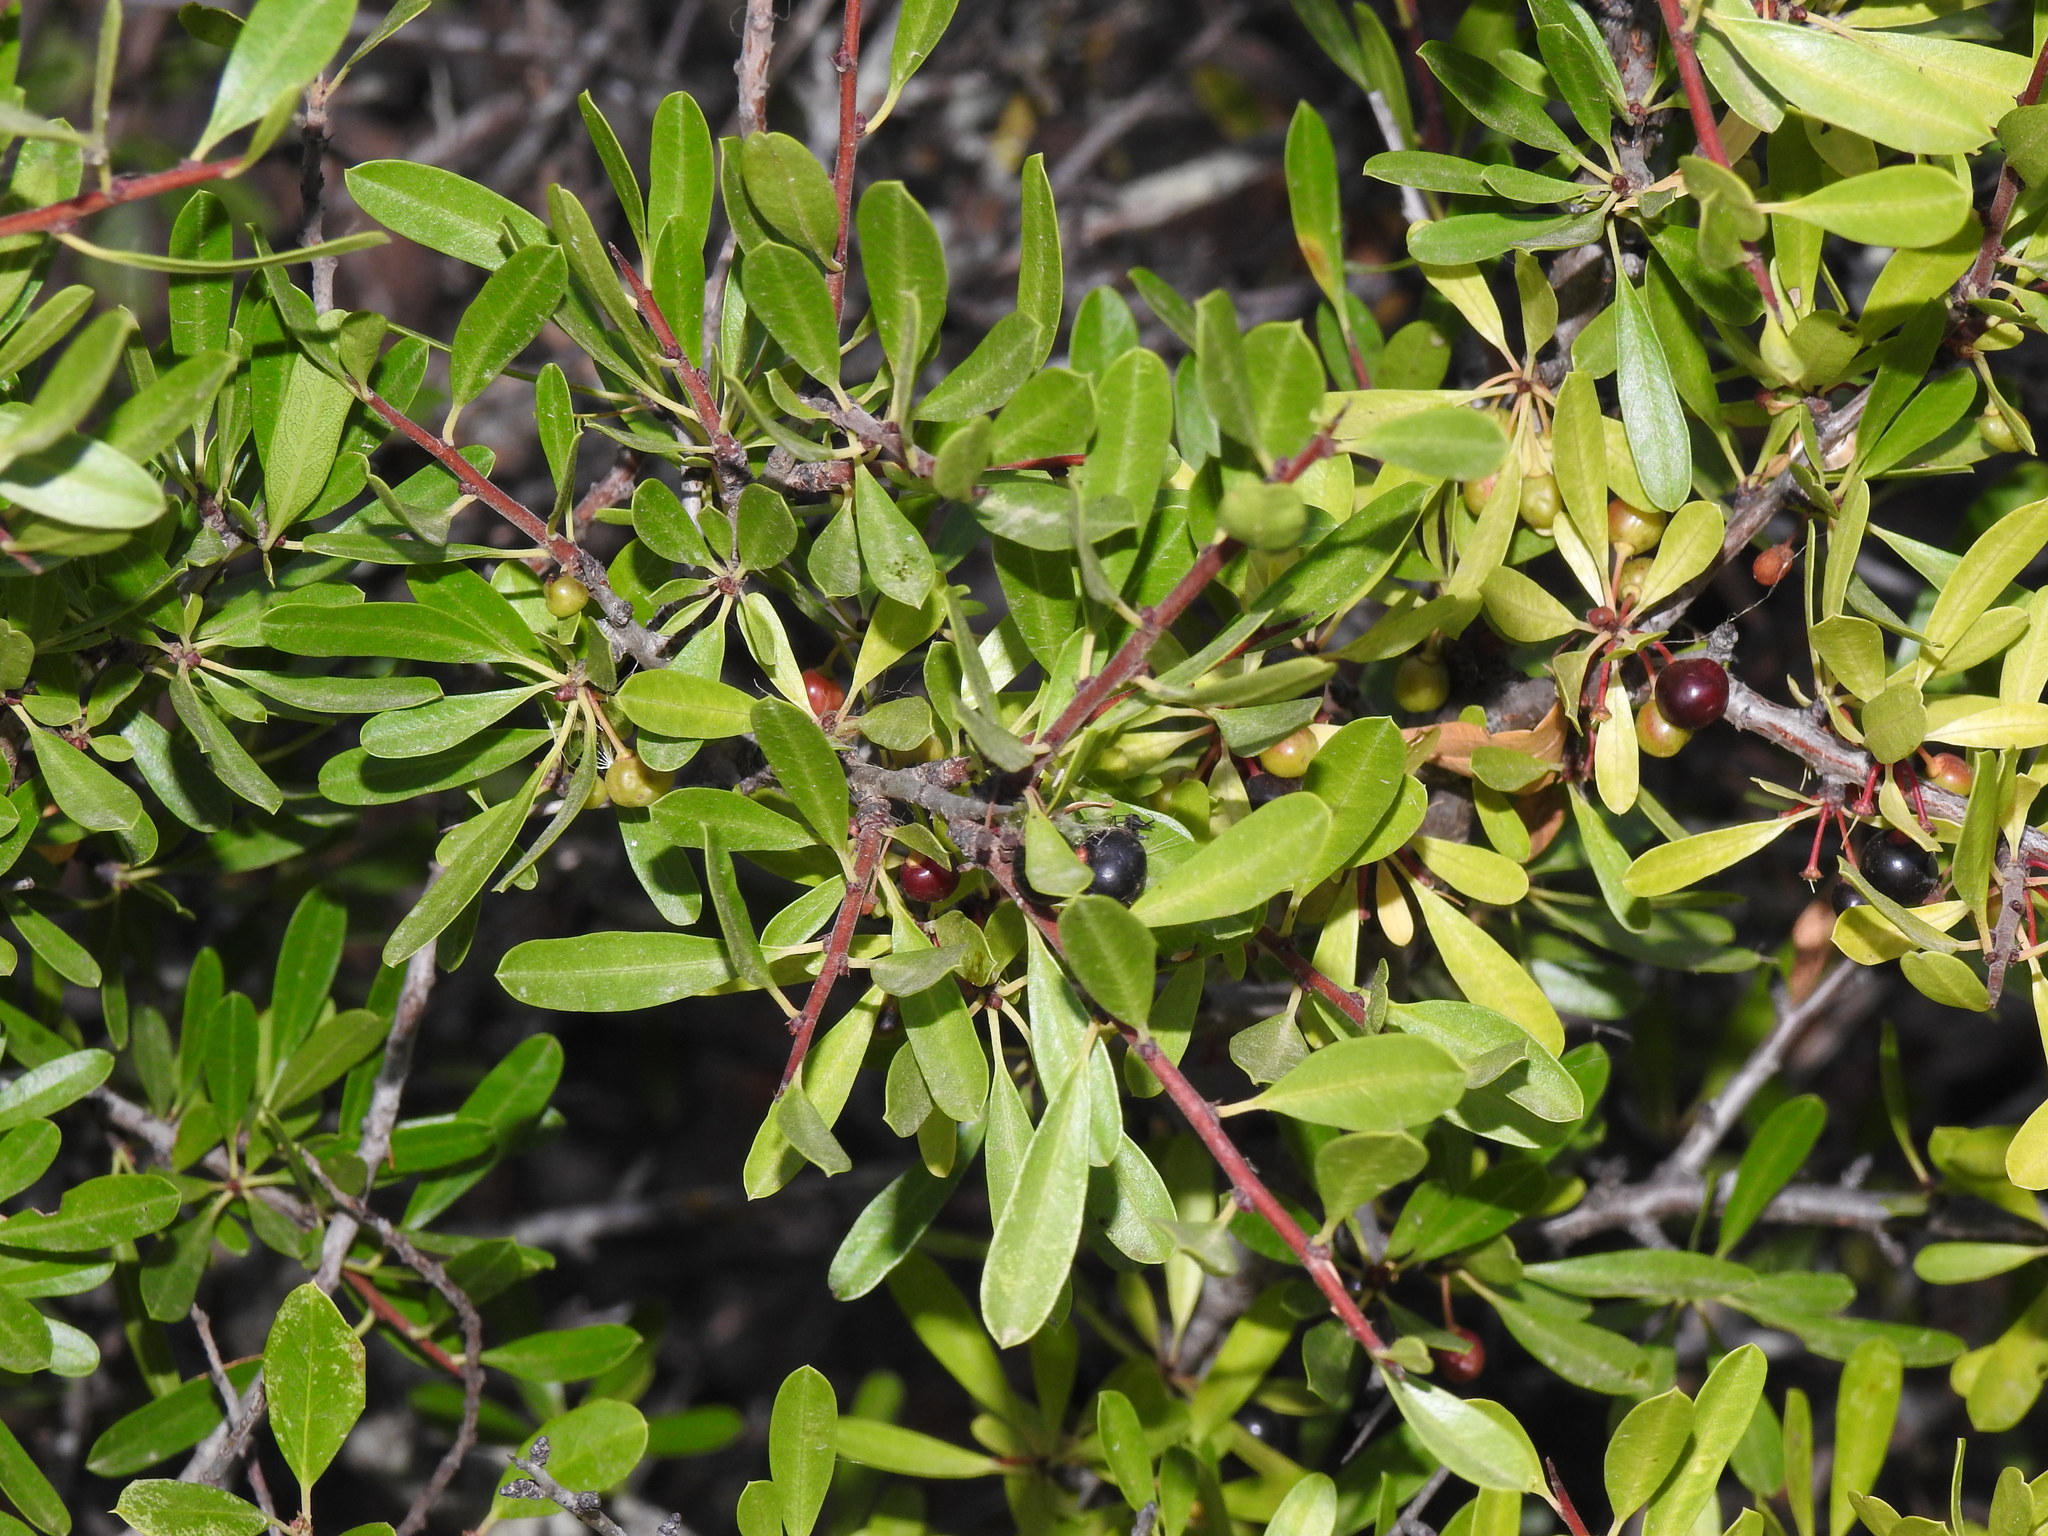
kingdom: Plantae
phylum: Tracheophyta
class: Magnoliopsida
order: Rosales
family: Rhamnaceae
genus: Rhamnus
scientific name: Rhamnus oleoides
